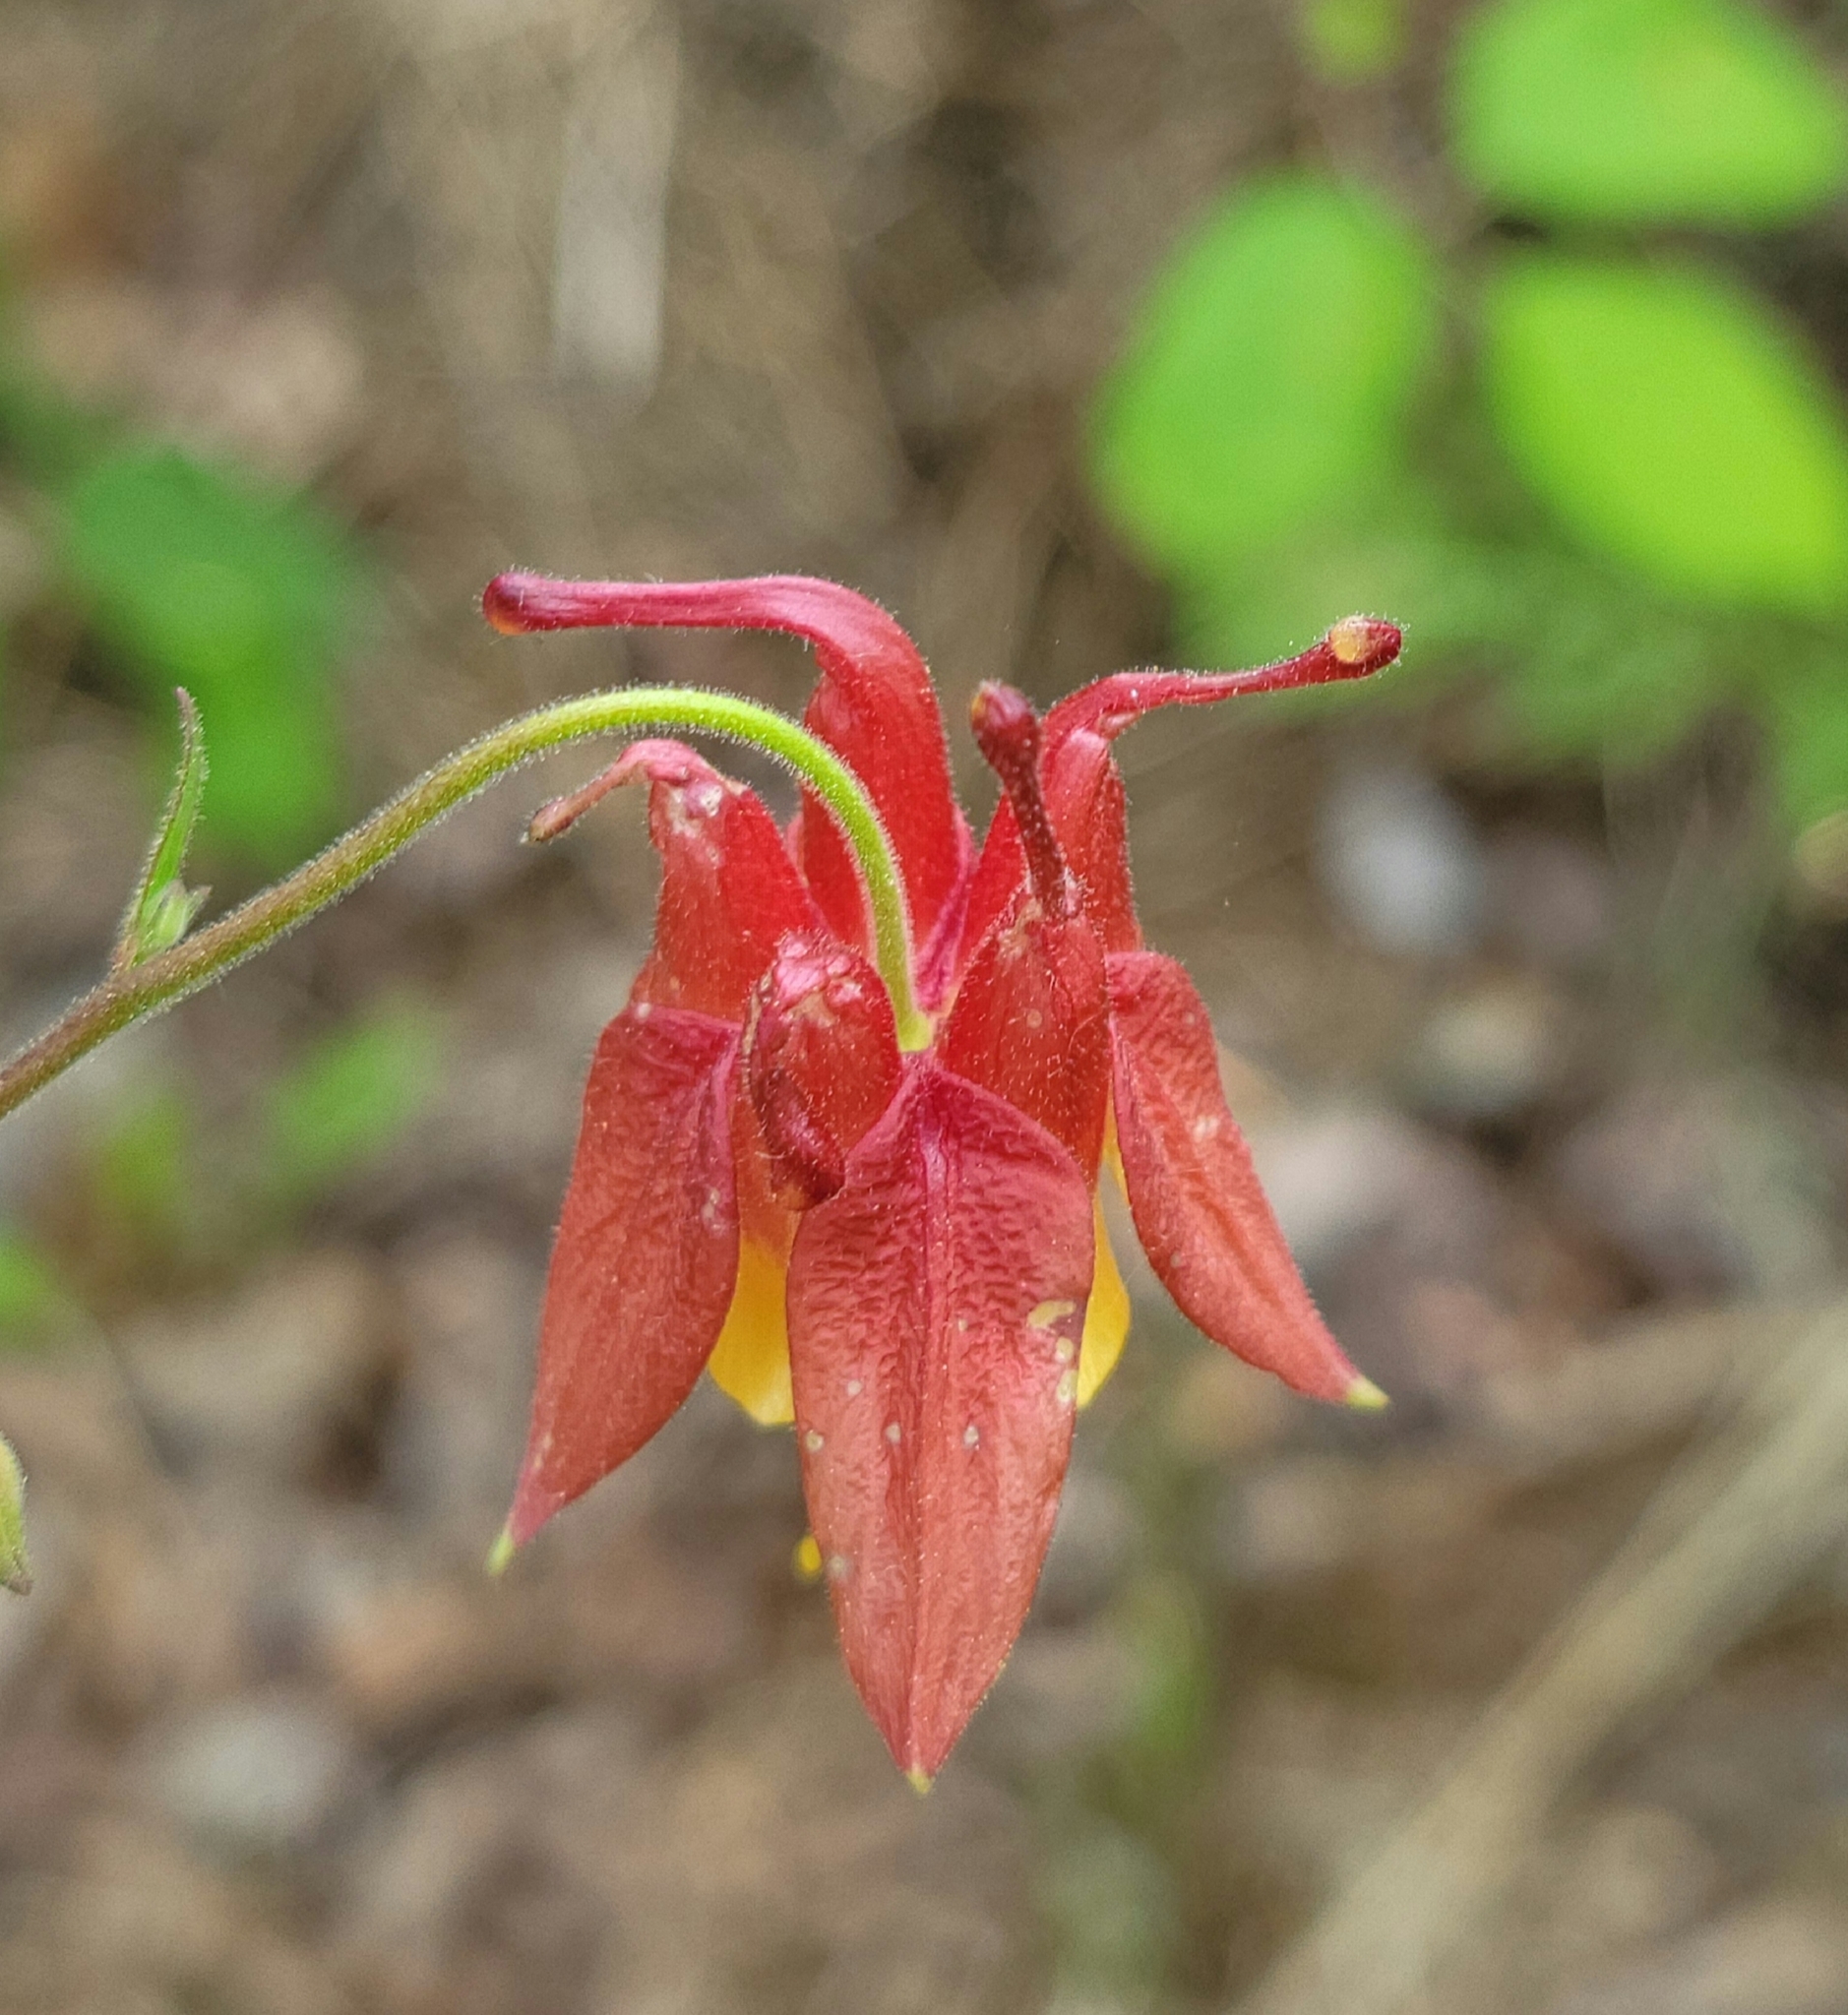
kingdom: Plantae
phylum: Tracheophyta
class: Magnoliopsida
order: Ranunculales
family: Ranunculaceae
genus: Aquilegia
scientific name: Aquilegia canadensis
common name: American columbine
